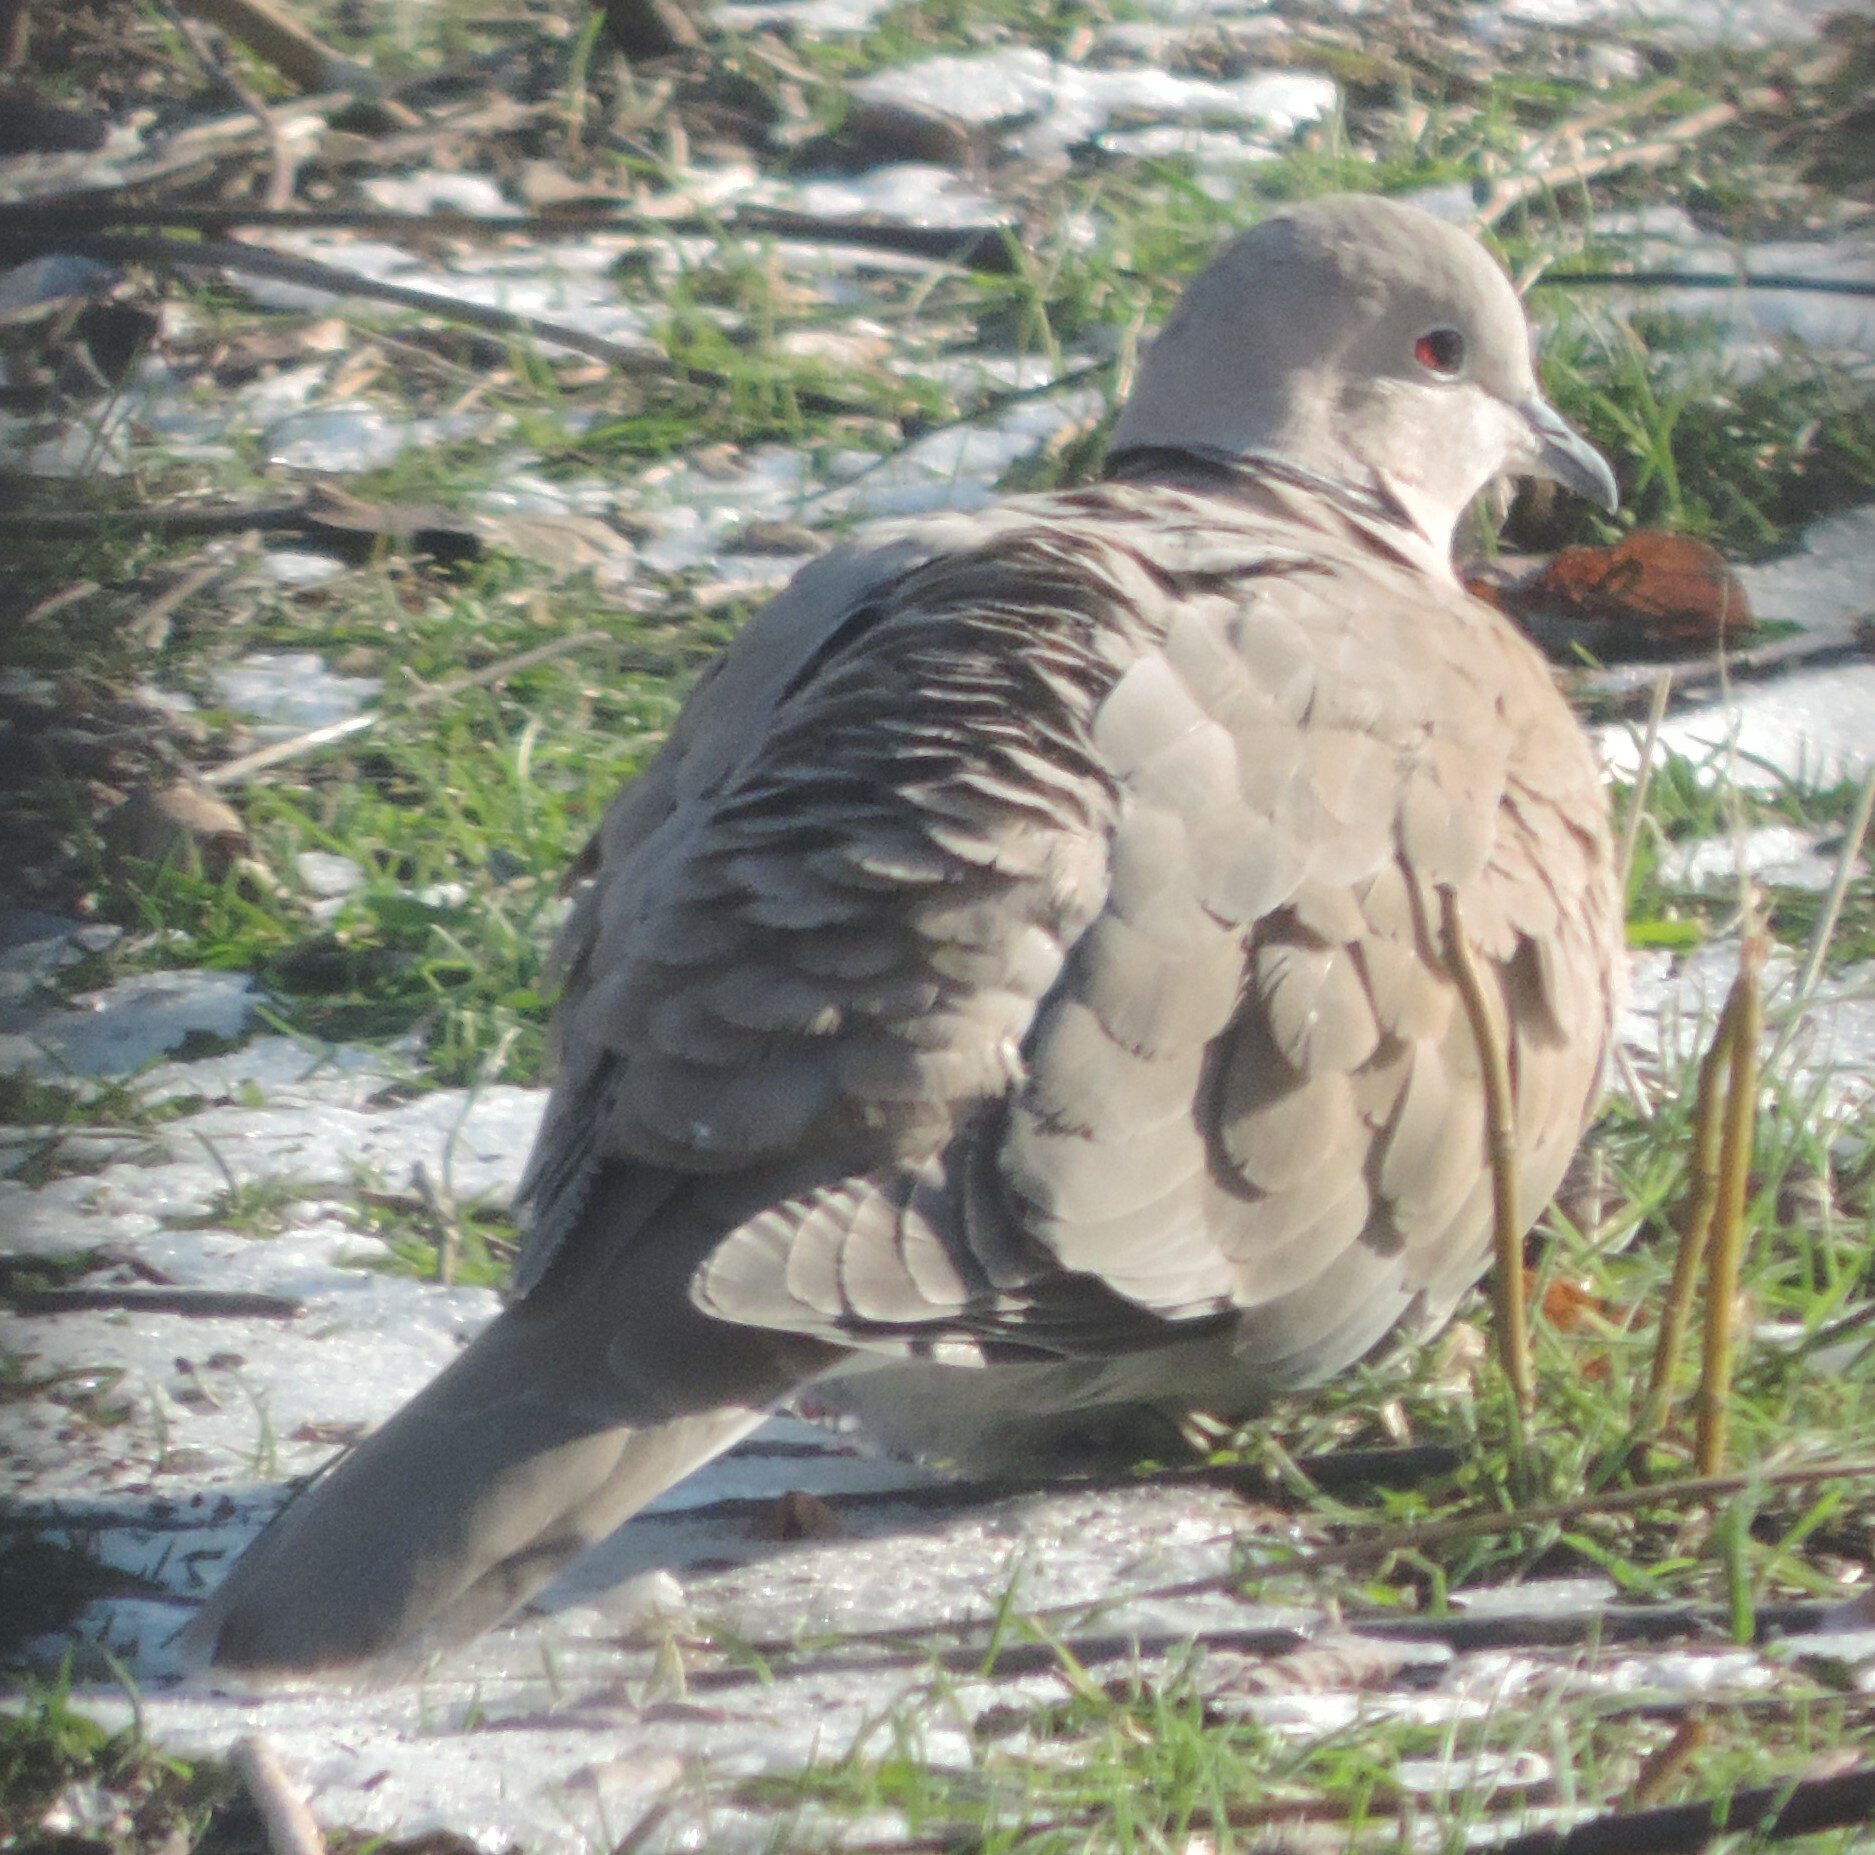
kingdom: Animalia
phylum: Chordata
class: Aves
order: Columbiformes
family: Columbidae
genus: Streptopelia
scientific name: Streptopelia decaocto
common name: Eurasian collared dove
